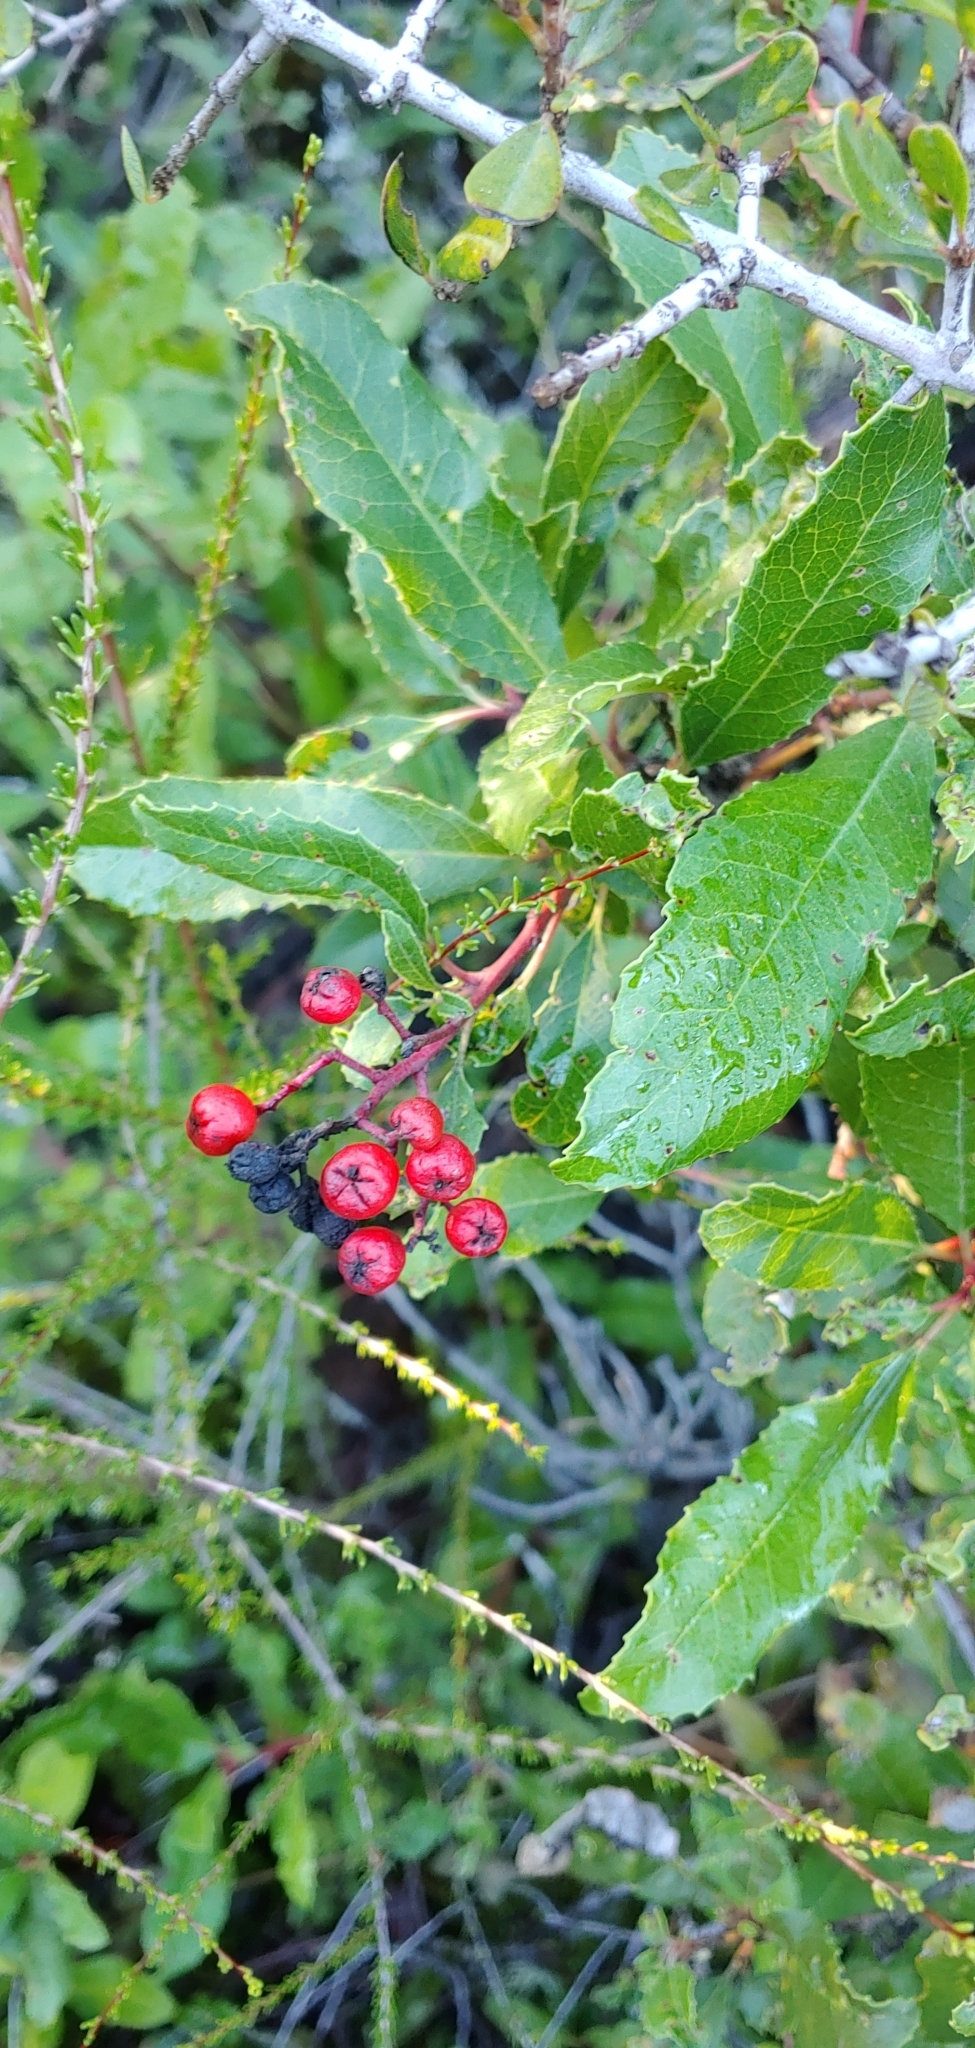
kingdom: Plantae
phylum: Tracheophyta
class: Magnoliopsida
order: Rosales
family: Rosaceae
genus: Heteromeles
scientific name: Heteromeles arbutifolia
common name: California-holly
